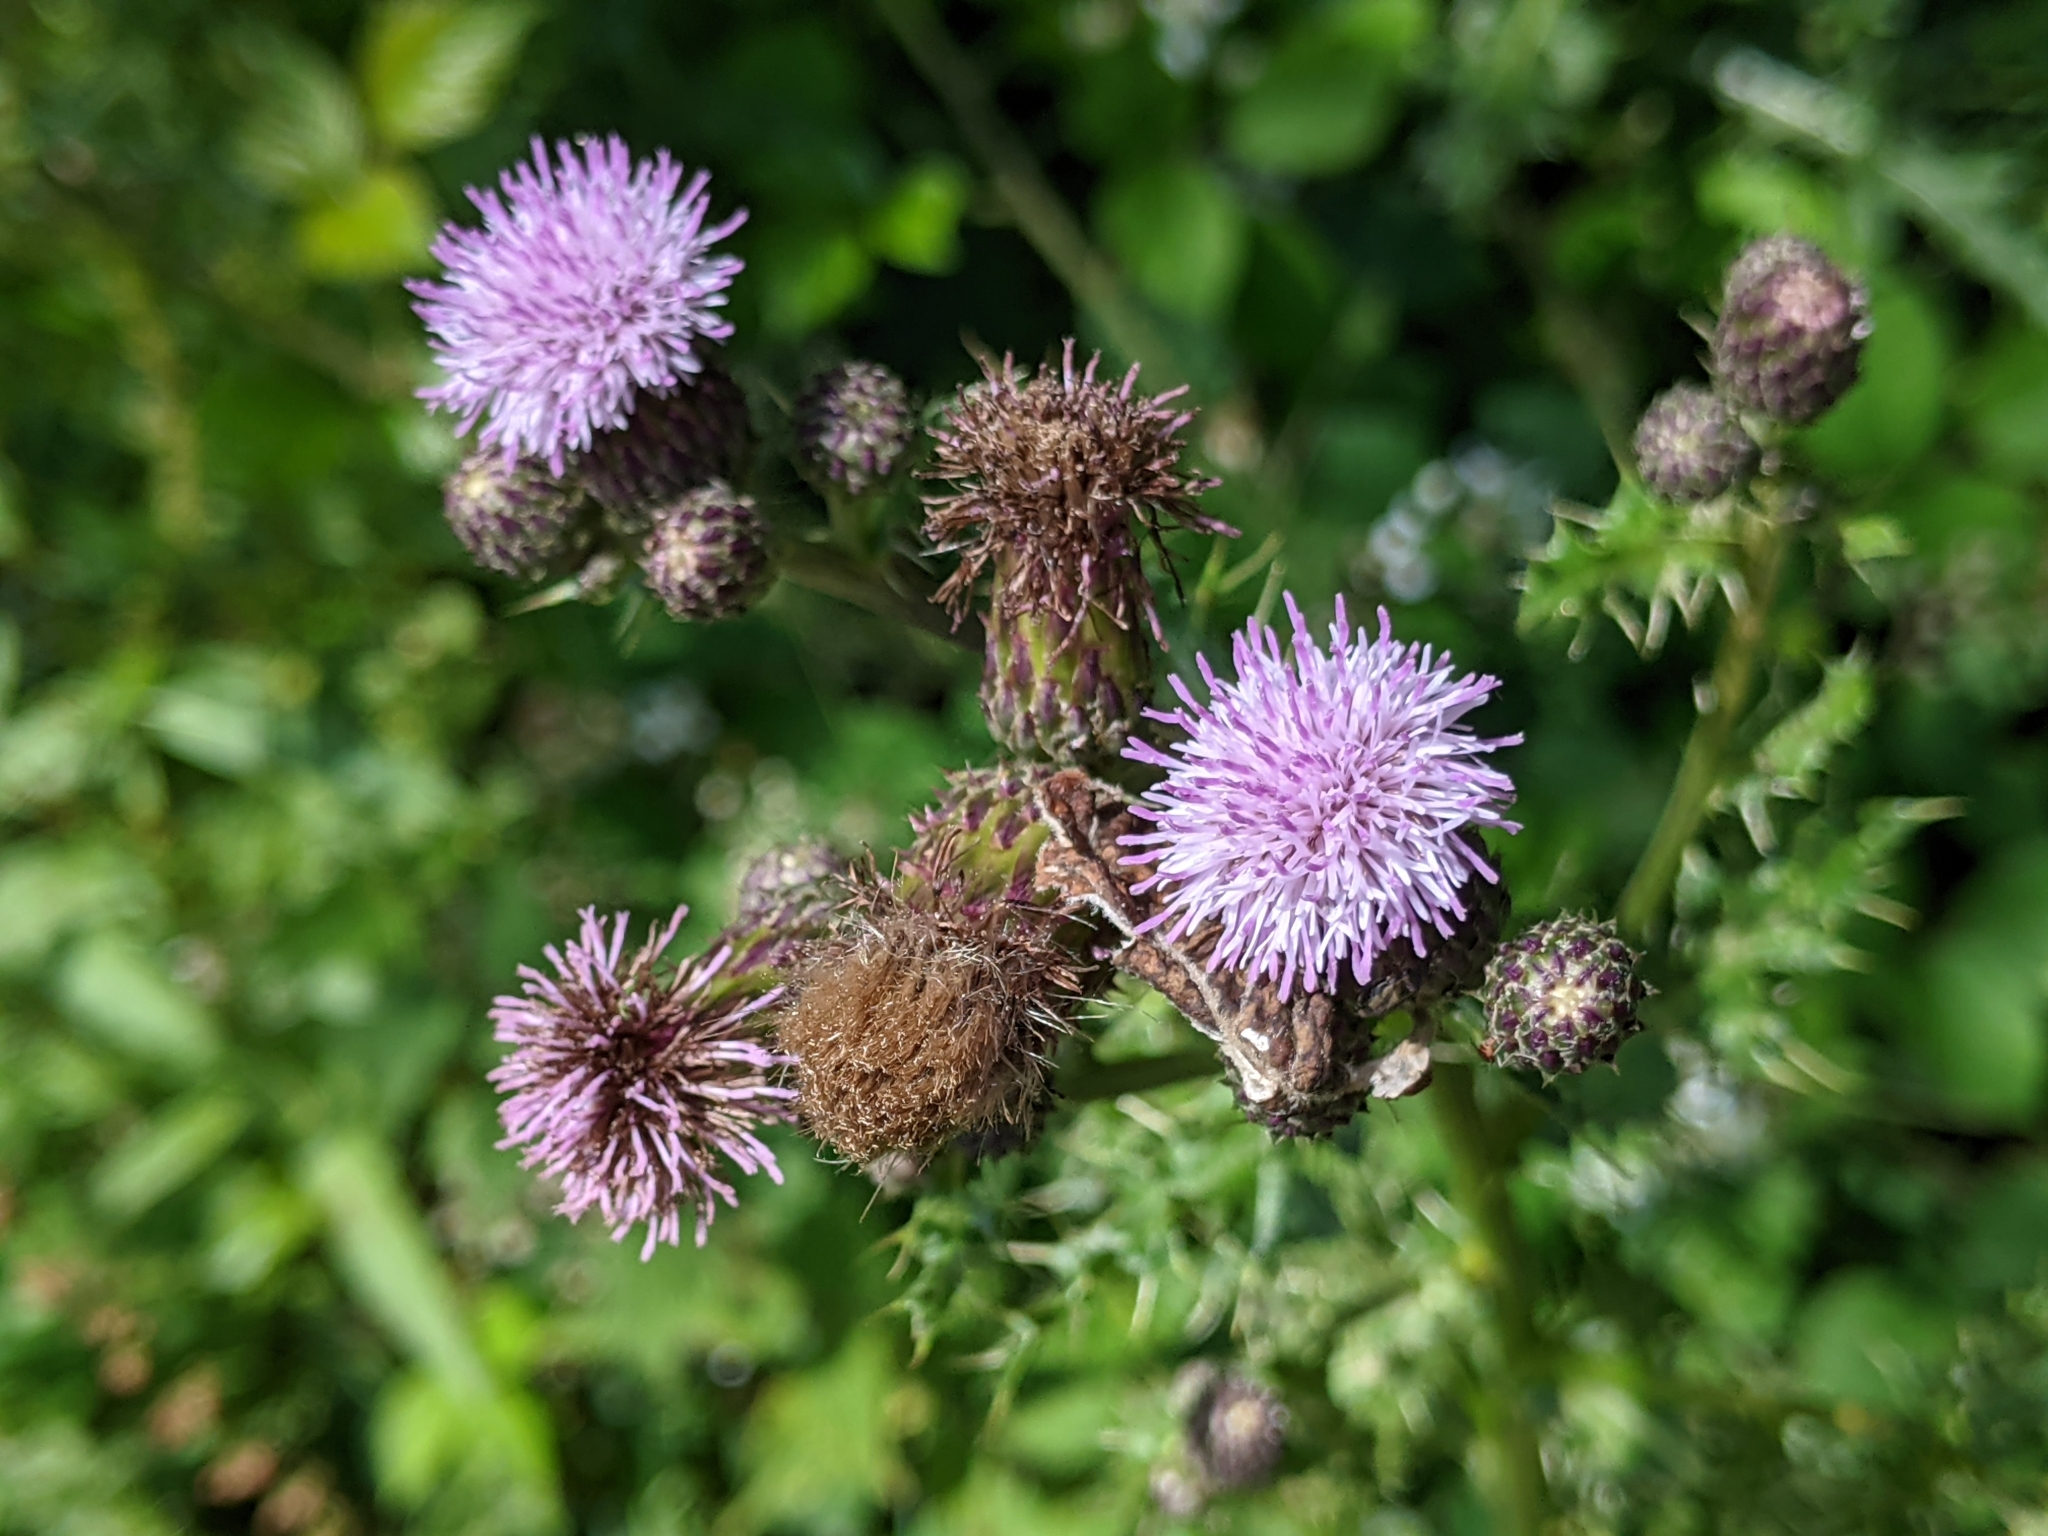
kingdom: Plantae
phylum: Tracheophyta
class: Magnoliopsida
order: Asterales
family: Asteraceae
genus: Cirsium
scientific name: Cirsium arvense
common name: Creeping thistle
